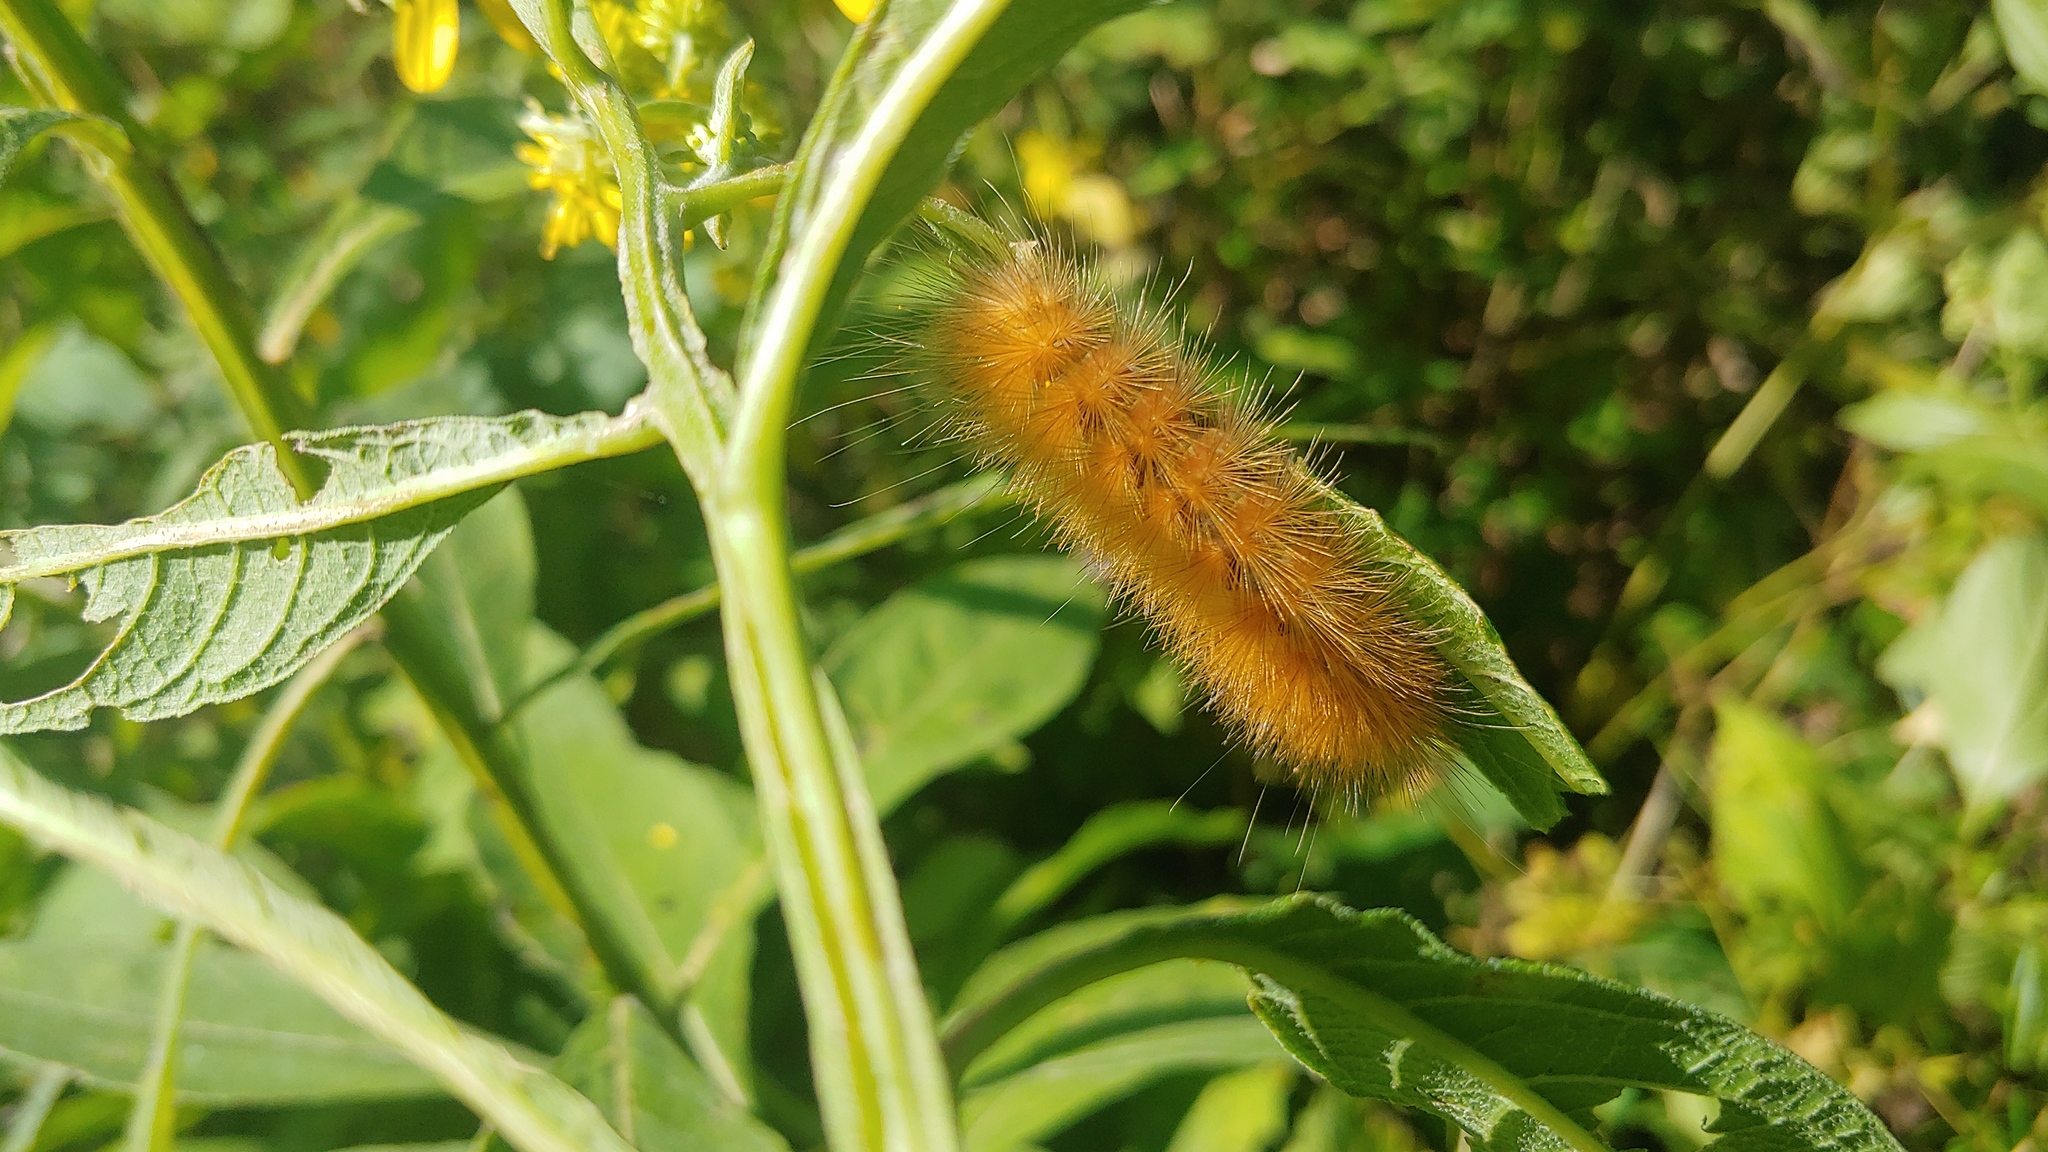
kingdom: Animalia
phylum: Arthropoda
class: Insecta
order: Lepidoptera
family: Erebidae
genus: Spilosoma
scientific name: Spilosoma virginica
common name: Virginia tiger moth
